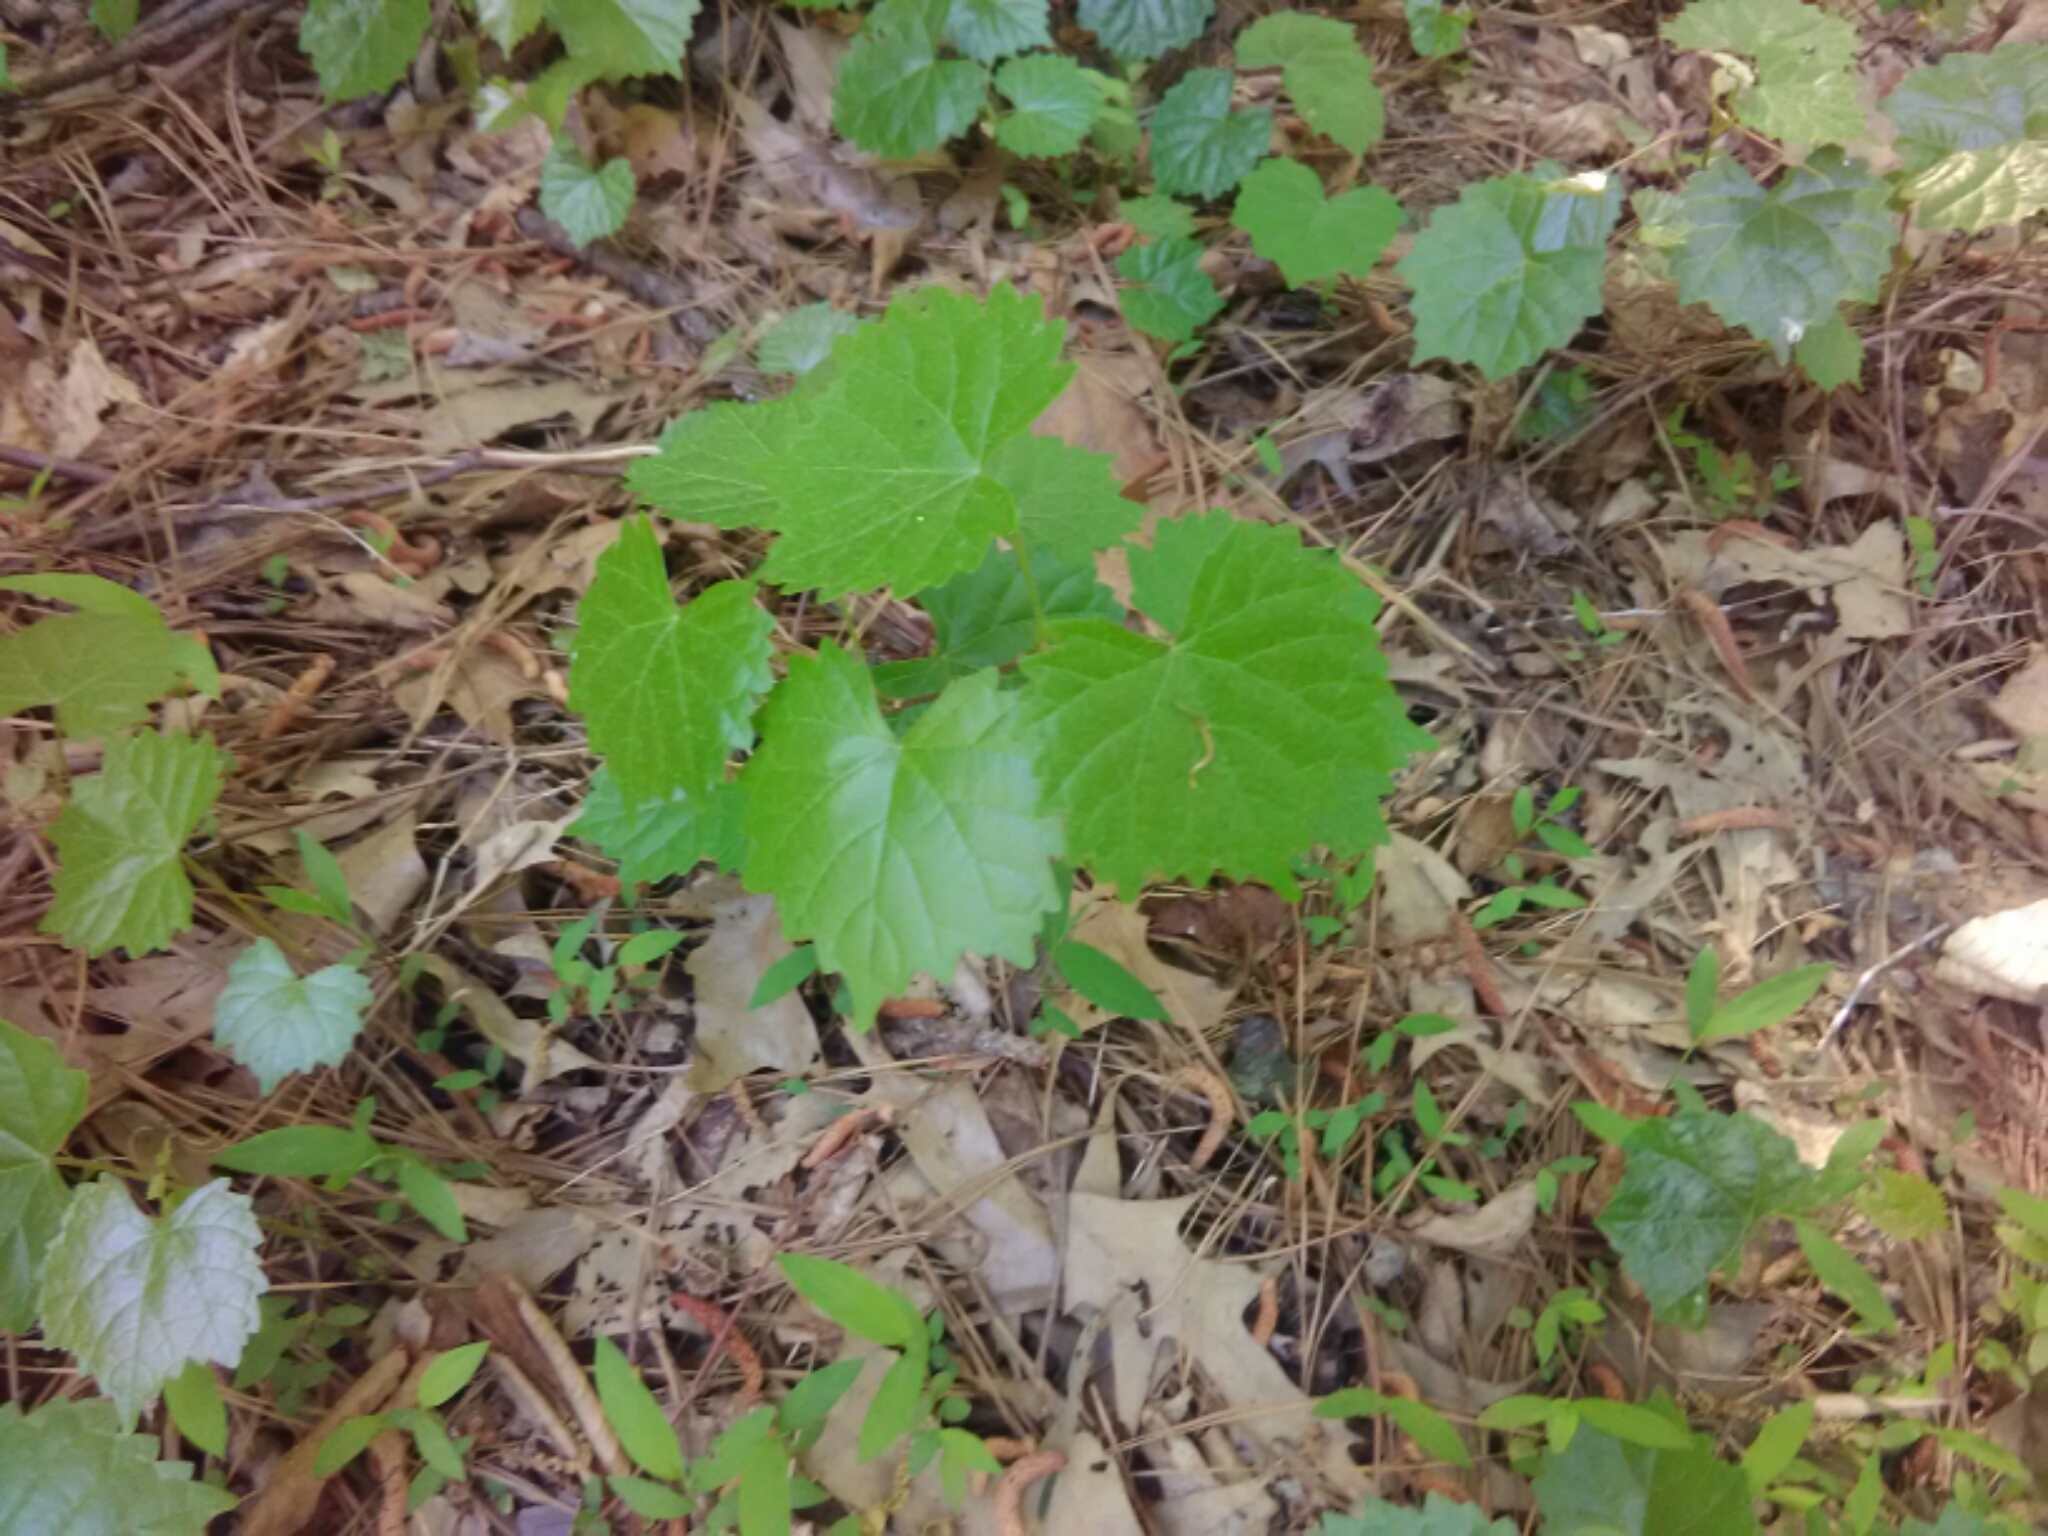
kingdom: Plantae
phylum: Tracheophyta
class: Magnoliopsida
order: Vitales
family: Vitaceae
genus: Vitis
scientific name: Vitis rotundifolia
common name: Muscadine grape
